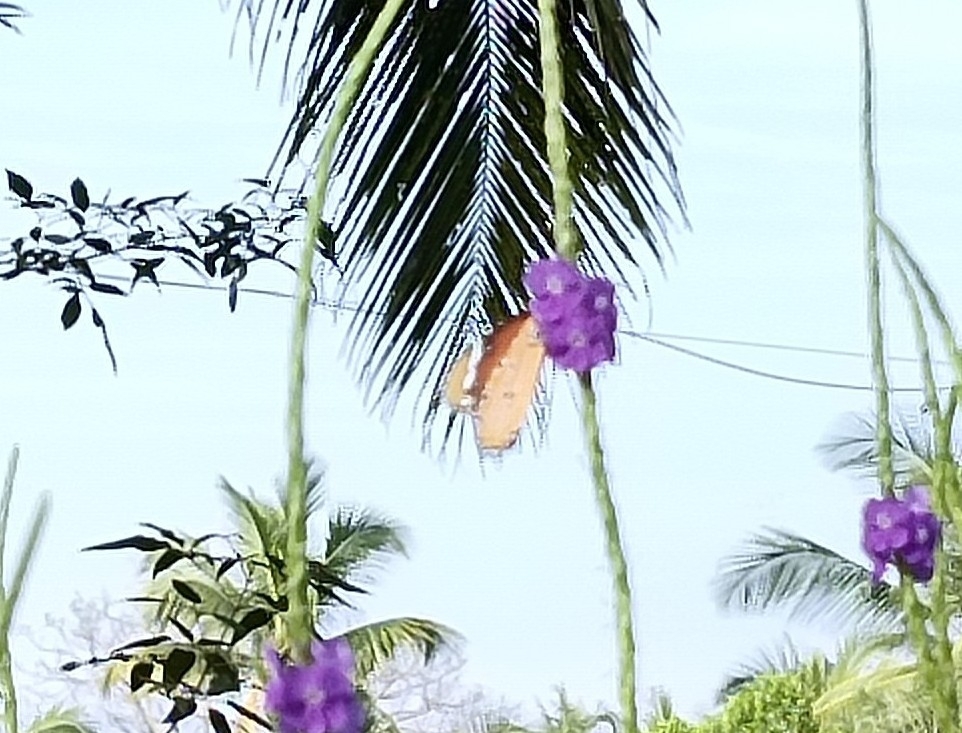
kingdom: Animalia
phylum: Arthropoda
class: Insecta
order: Lepidoptera
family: Nymphalidae
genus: Danaus
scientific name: Danaus chrysippus
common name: Plain tiger
